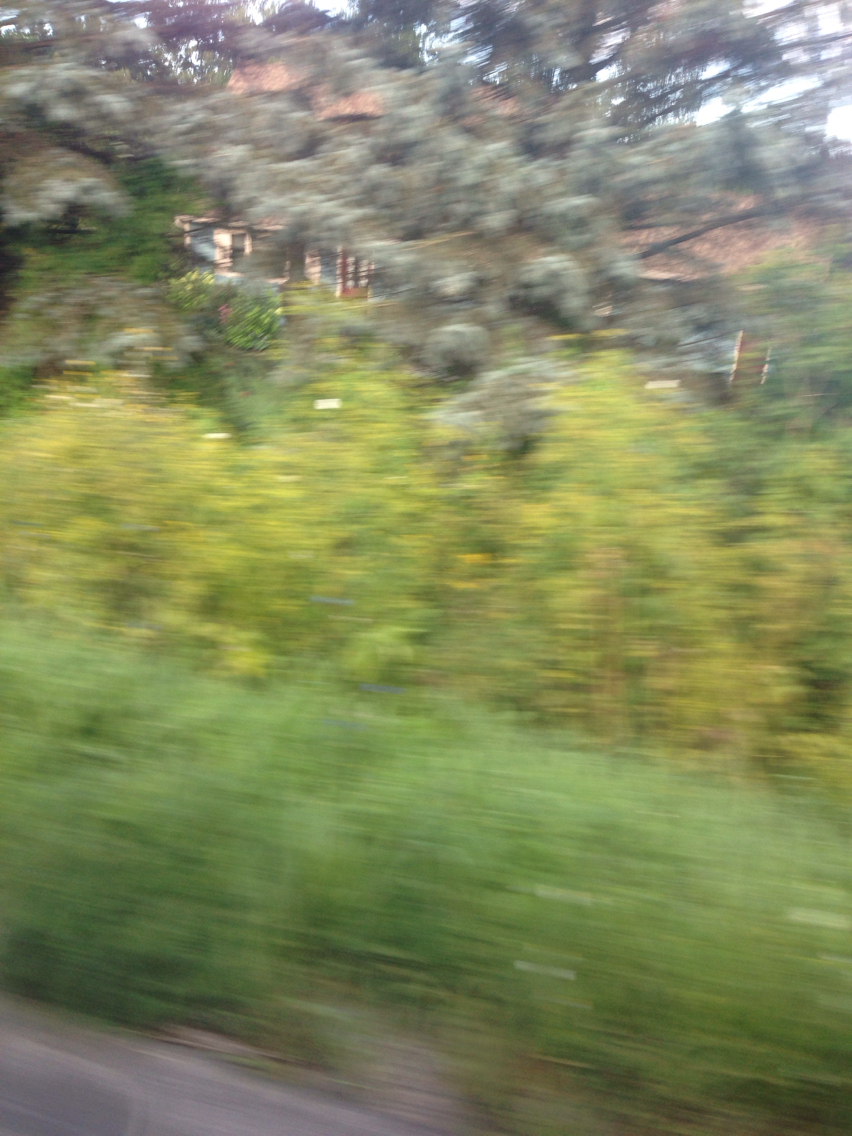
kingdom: Plantae
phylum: Tracheophyta
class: Magnoliopsida
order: Apiales
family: Apiaceae
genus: Pastinaca
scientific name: Pastinaca sativa
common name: Wild parsnip
